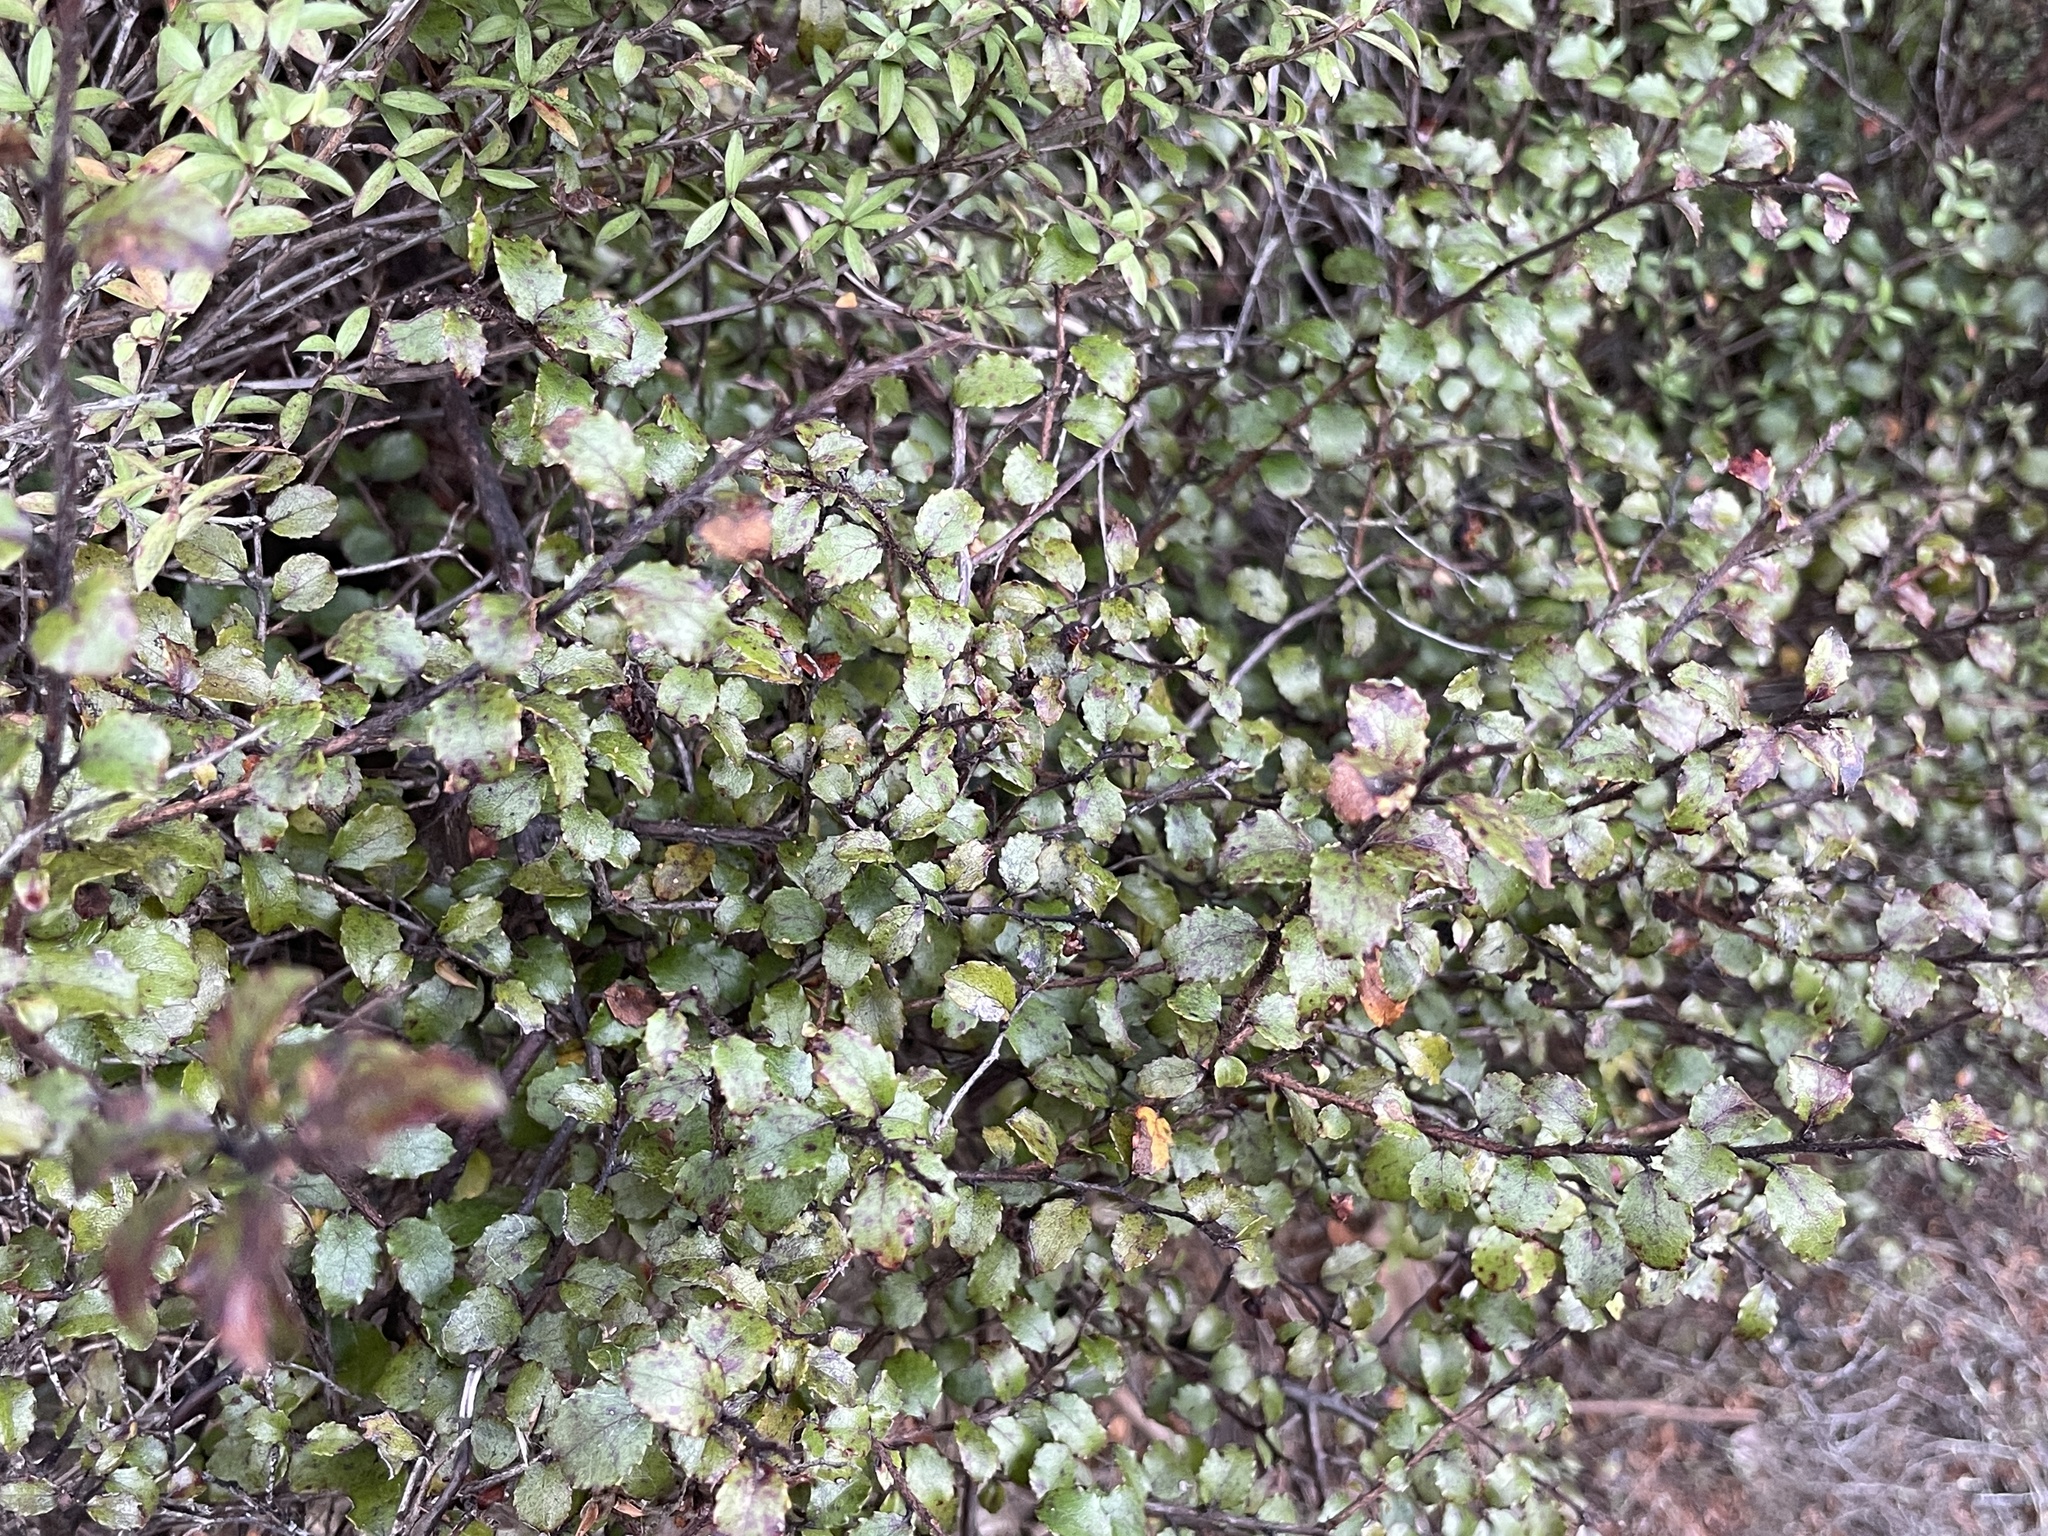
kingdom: Plantae
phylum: Tracheophyta
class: Magnoliopsida
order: Ericales
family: Ericaceae
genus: Gaultheria
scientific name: Gaultheria antipoda
